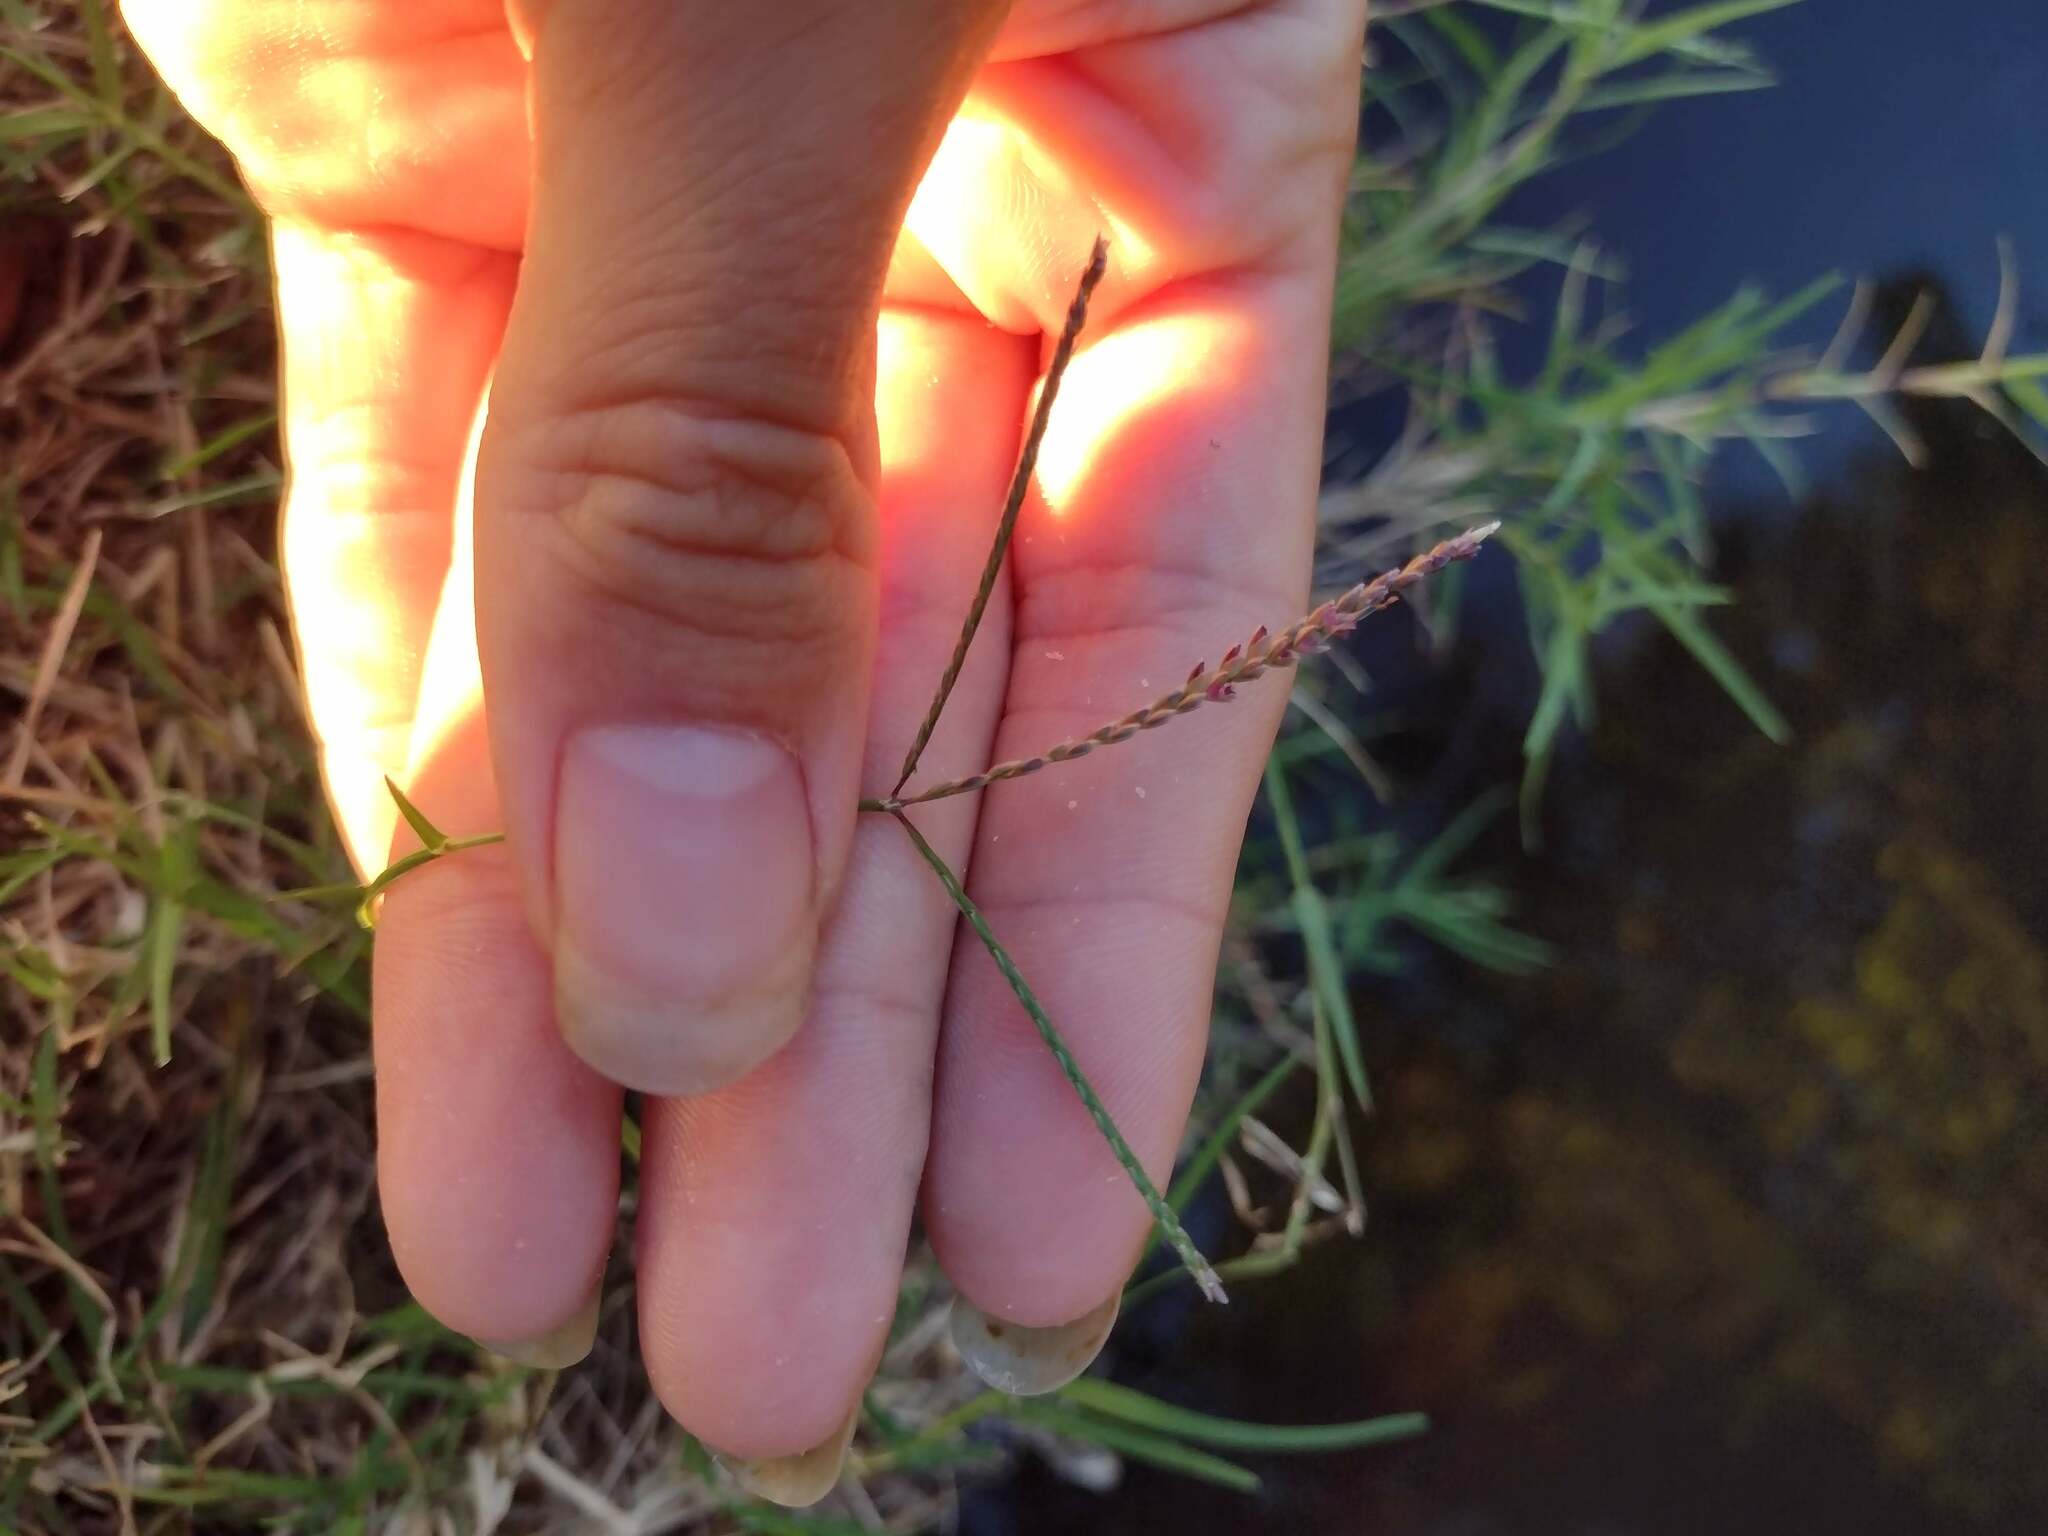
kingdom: Plantae
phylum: Tracheophyta
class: Liliopsida
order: Poales
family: Poaceae
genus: Cynodon
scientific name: Cynodon dactylon
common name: Bermuda grass
